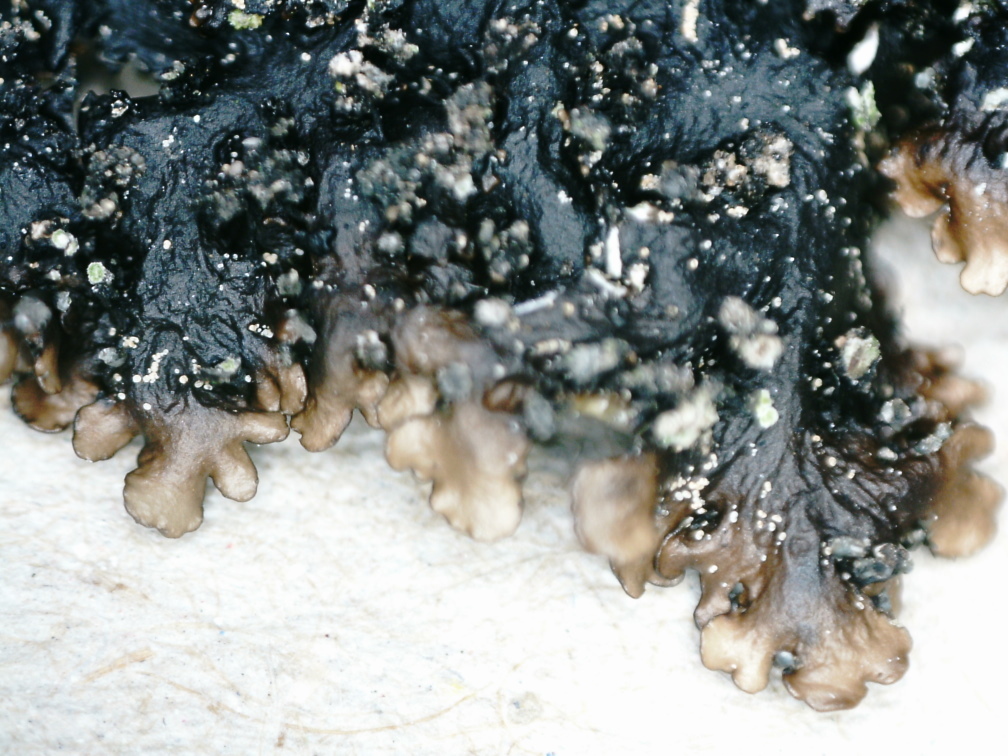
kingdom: Fungi
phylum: Ascomycota
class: Lecanoromycetes
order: Lecanorales
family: Parmeliaceae
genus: Melanelia
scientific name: Melanelia hepatizon
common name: Rimmed camouflage lichen
